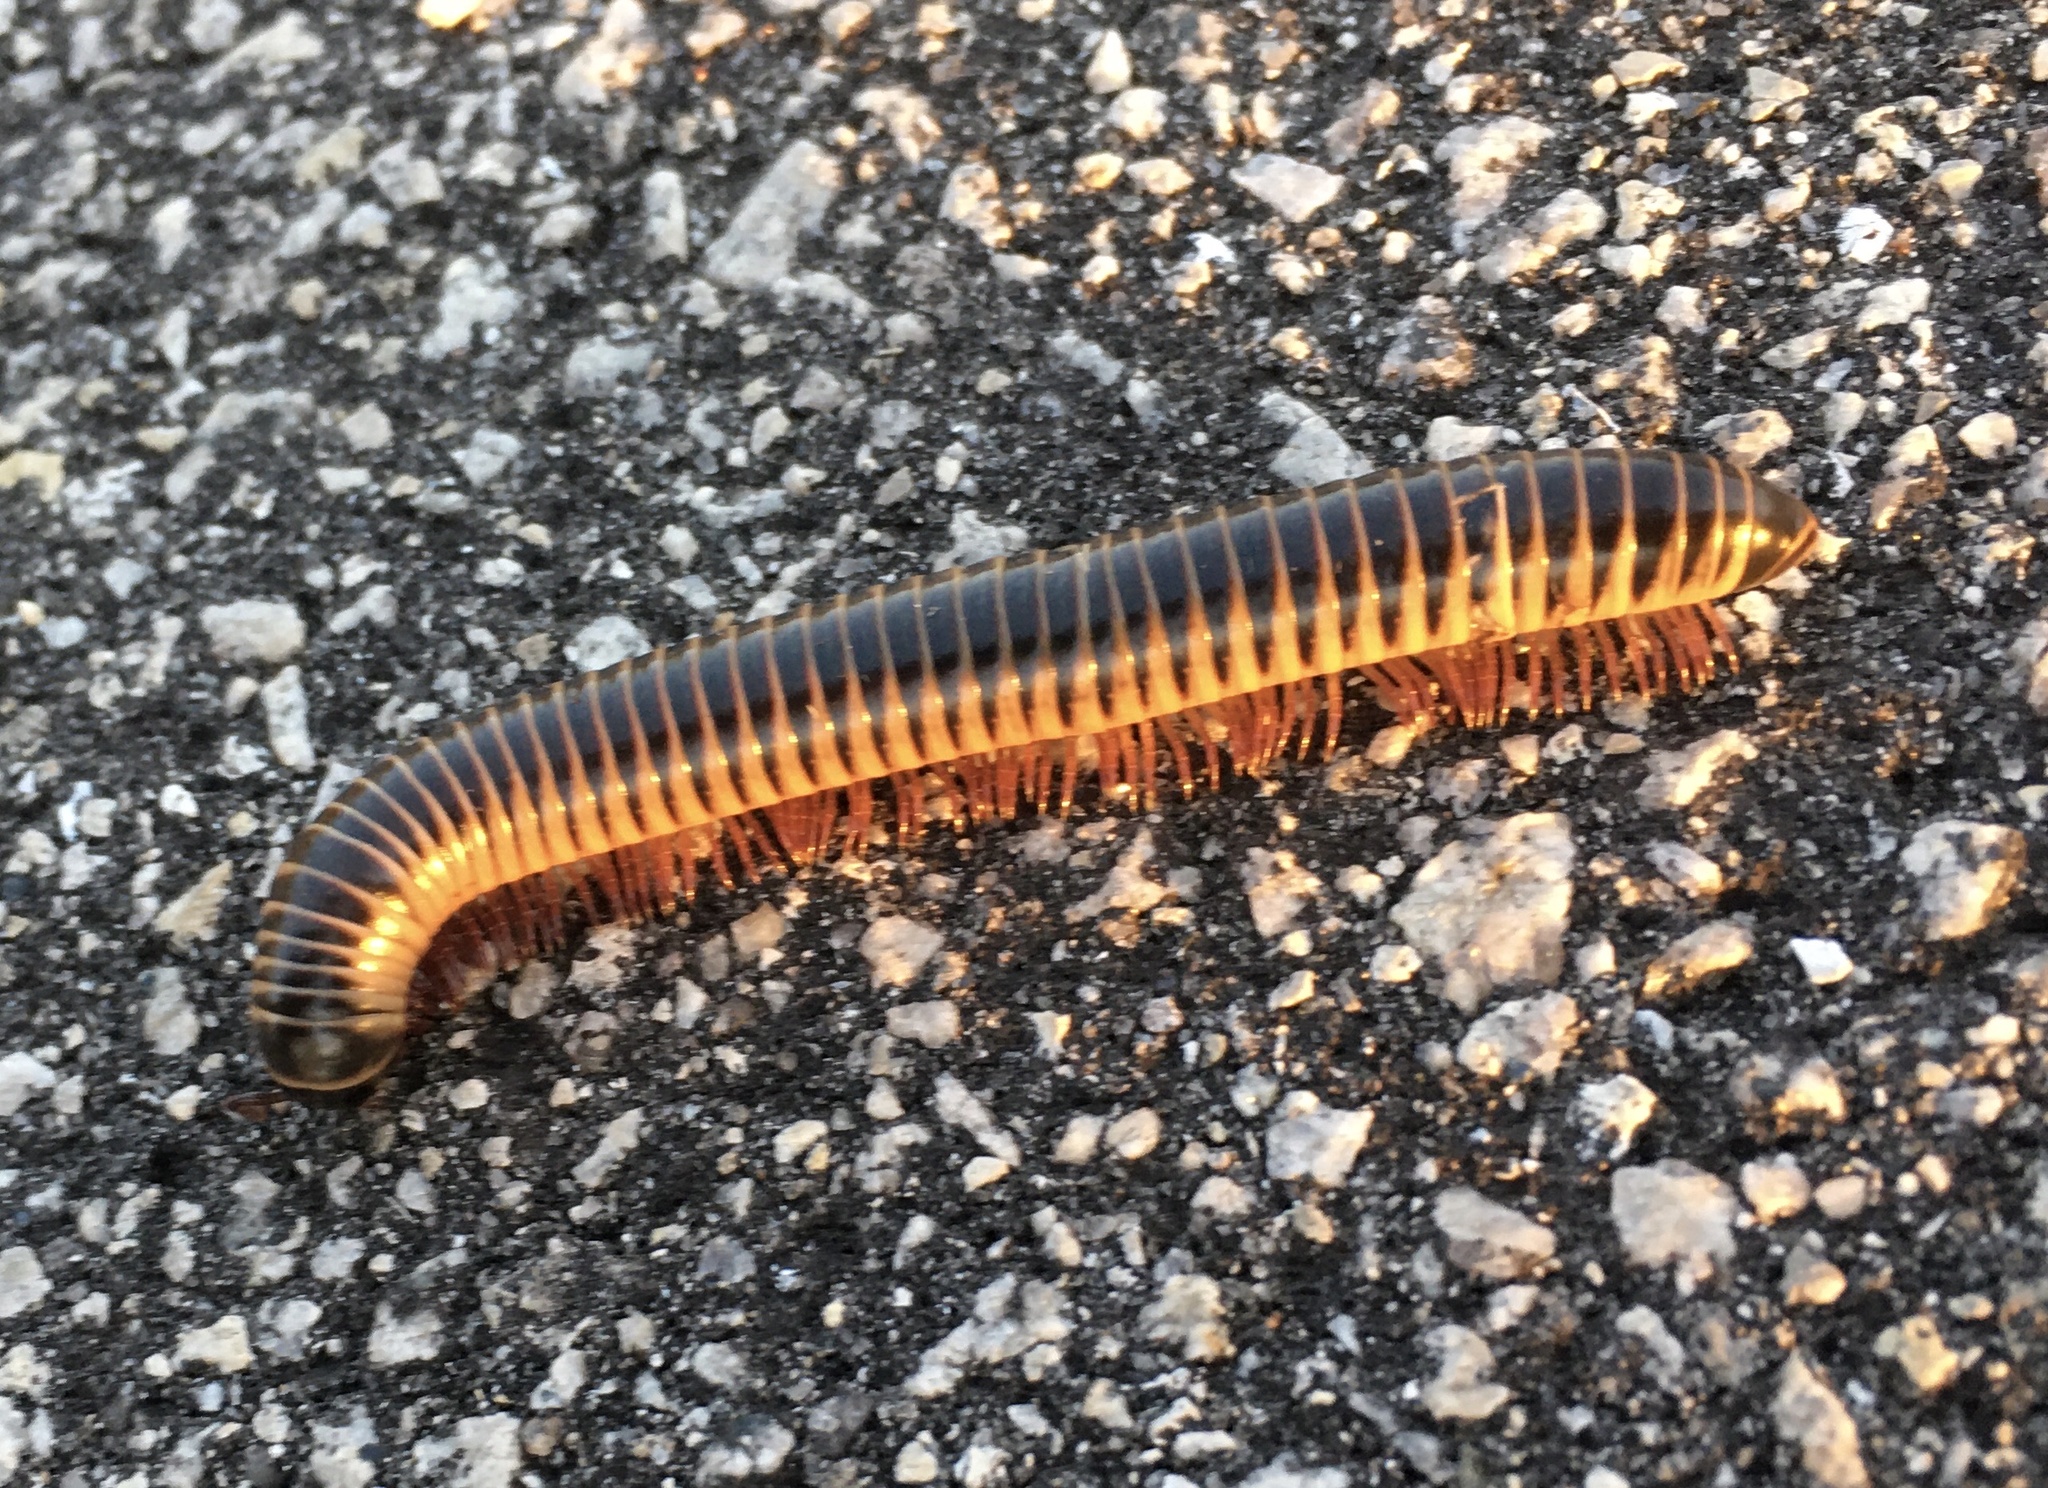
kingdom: Animalia
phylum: Arthropoda
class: Diplopoda
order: Spirobolida
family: Spirobolidae
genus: Chicobolus
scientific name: Chicobolus spinigerus
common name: Florida ivory millipede
